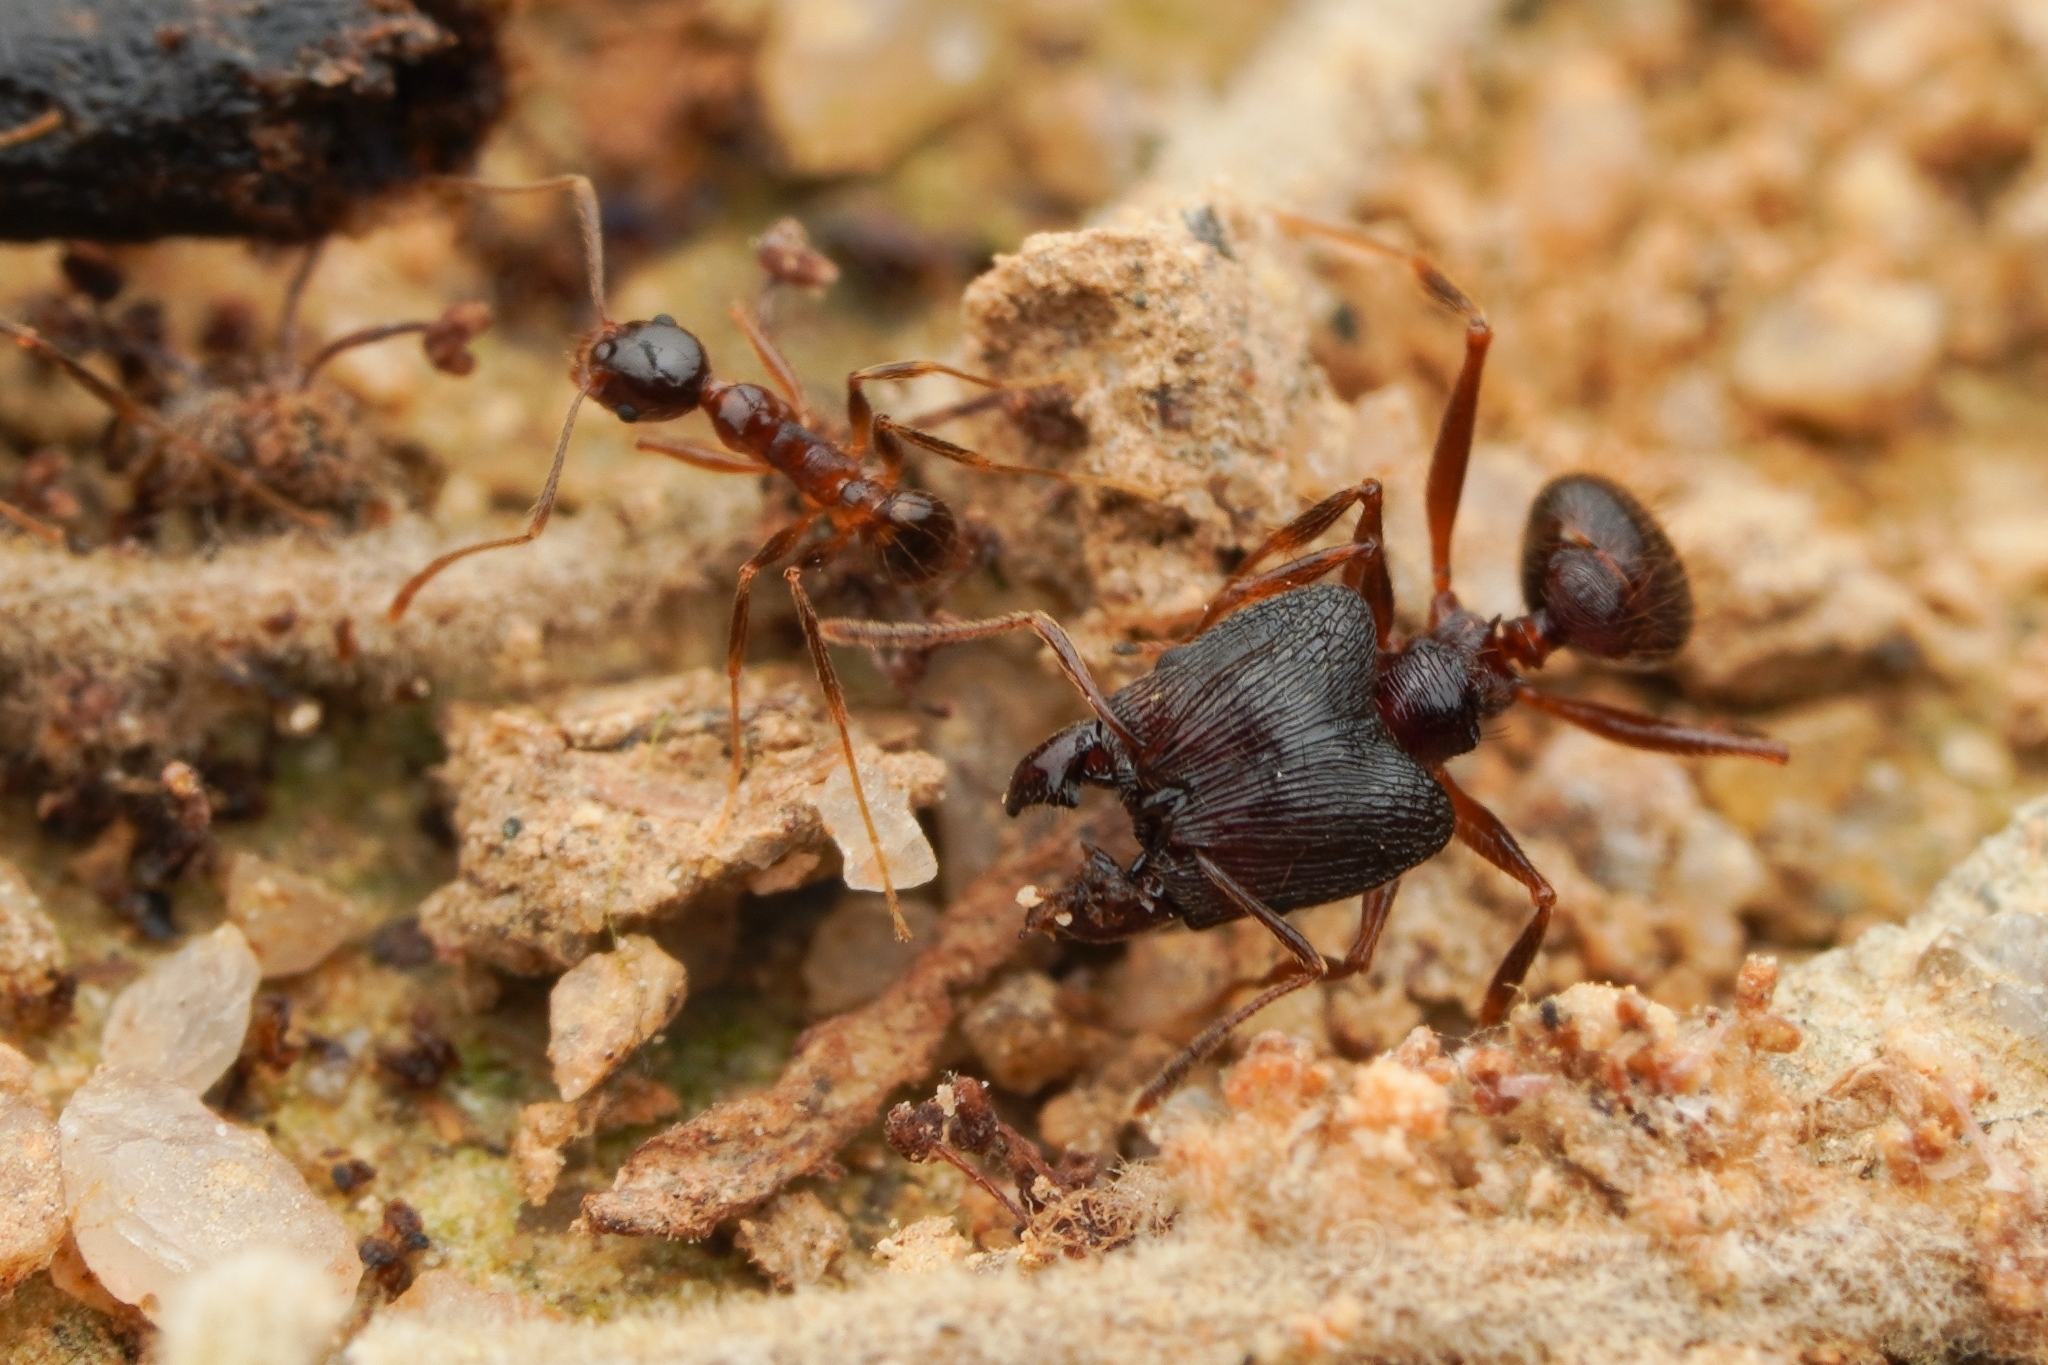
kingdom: Animalia
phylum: Arthropoda
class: Insecta
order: Hymenoptera
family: Formicidae
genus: Pheidole
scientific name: Pheidole noda
